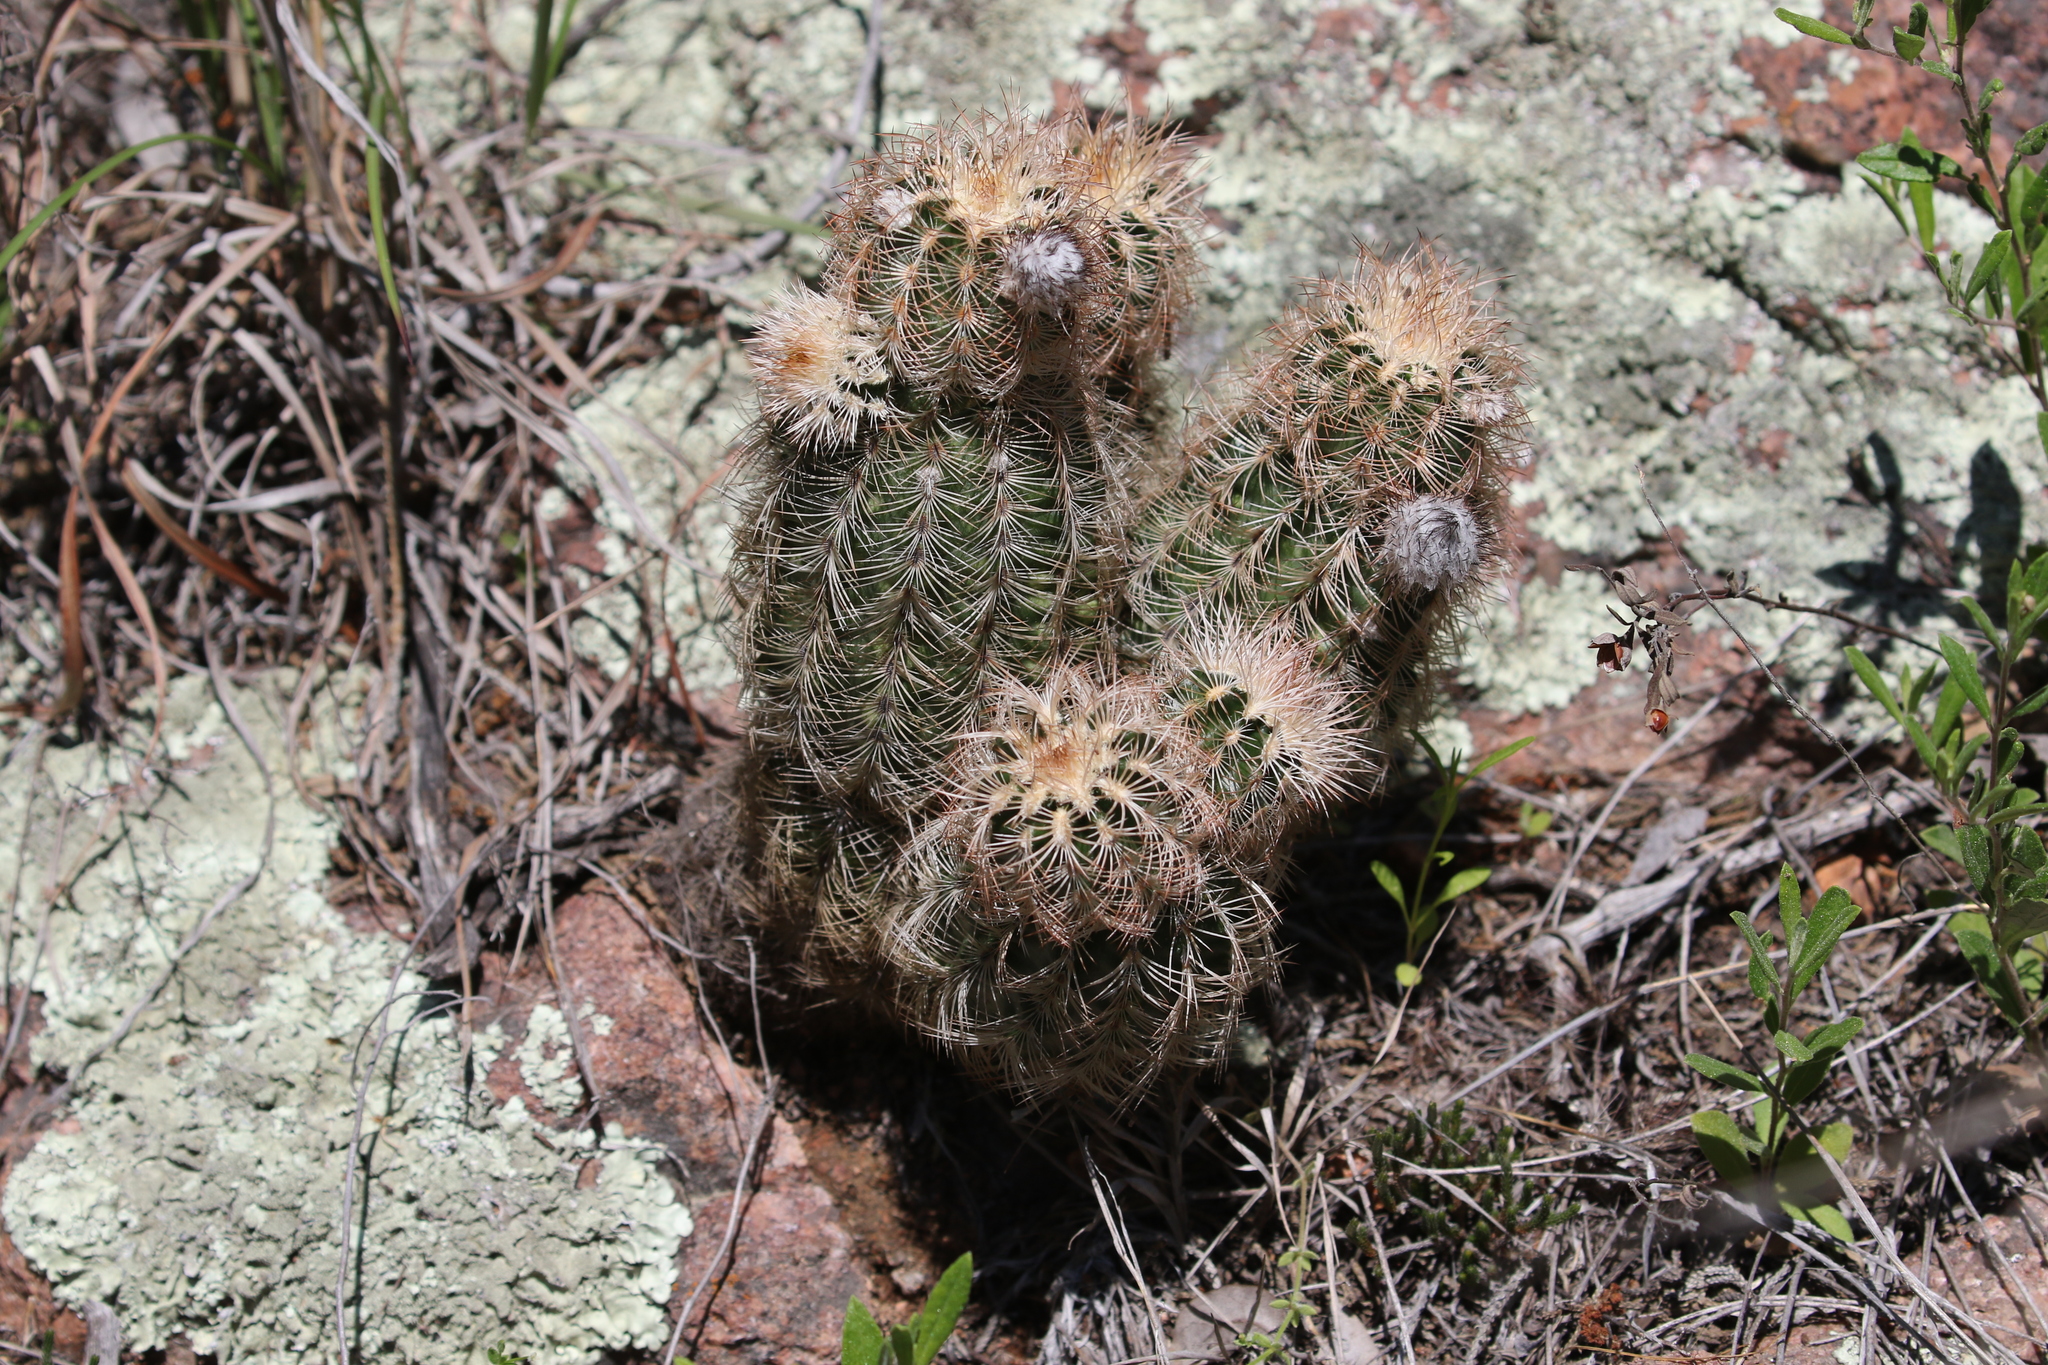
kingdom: Plantae
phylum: Tracheophyta
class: Magnoliopsida
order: Caryophyllales
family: Cactaceae
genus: Echinocereus
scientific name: Echinocereus reichenbachii
